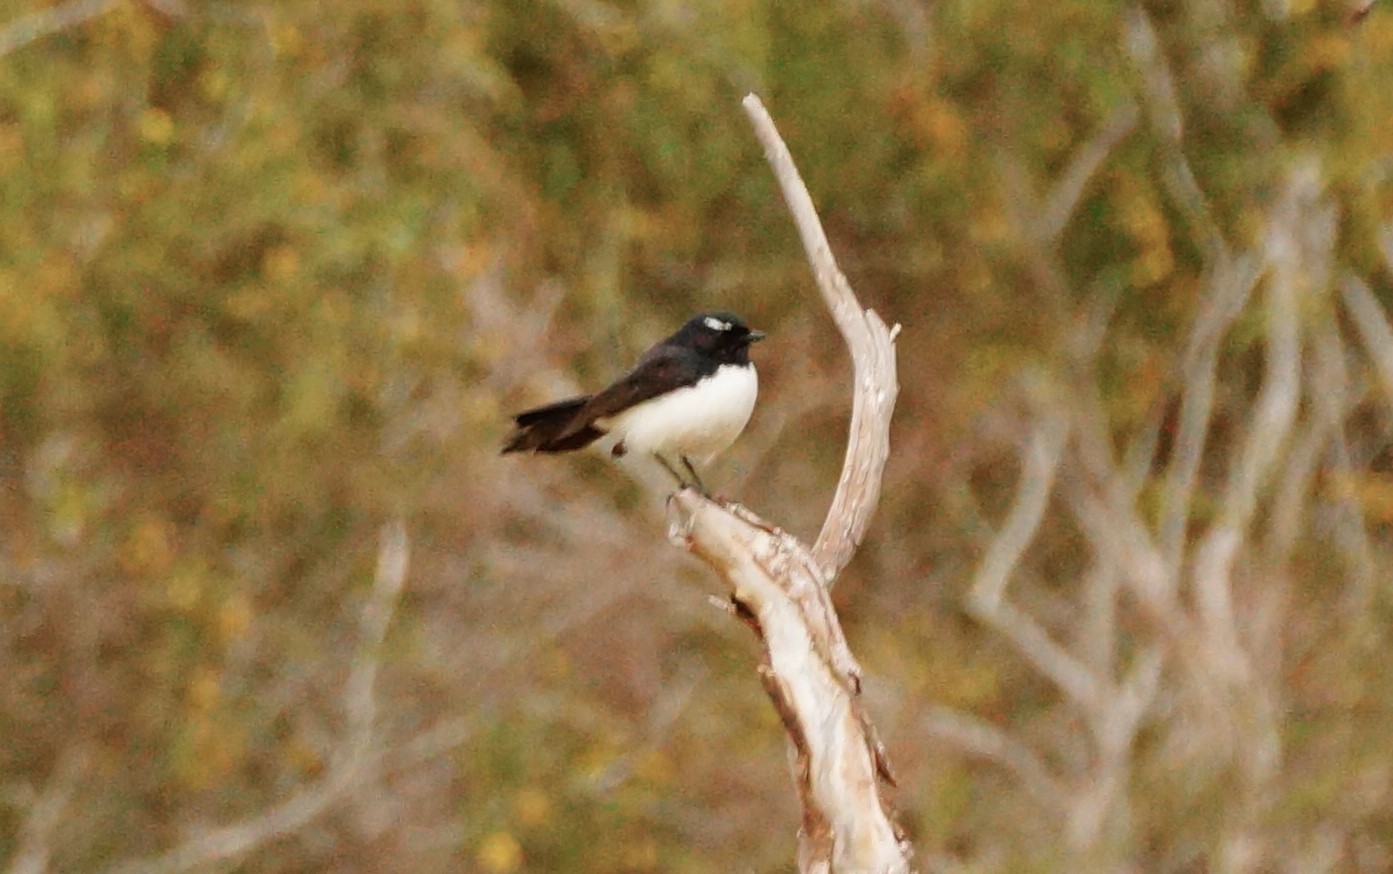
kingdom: Animalia
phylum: Chordata
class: Aves
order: Passeriformes
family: Rhipiduridae
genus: Rhipidura
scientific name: Rhipidura leucophrys
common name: Willie wagtail
